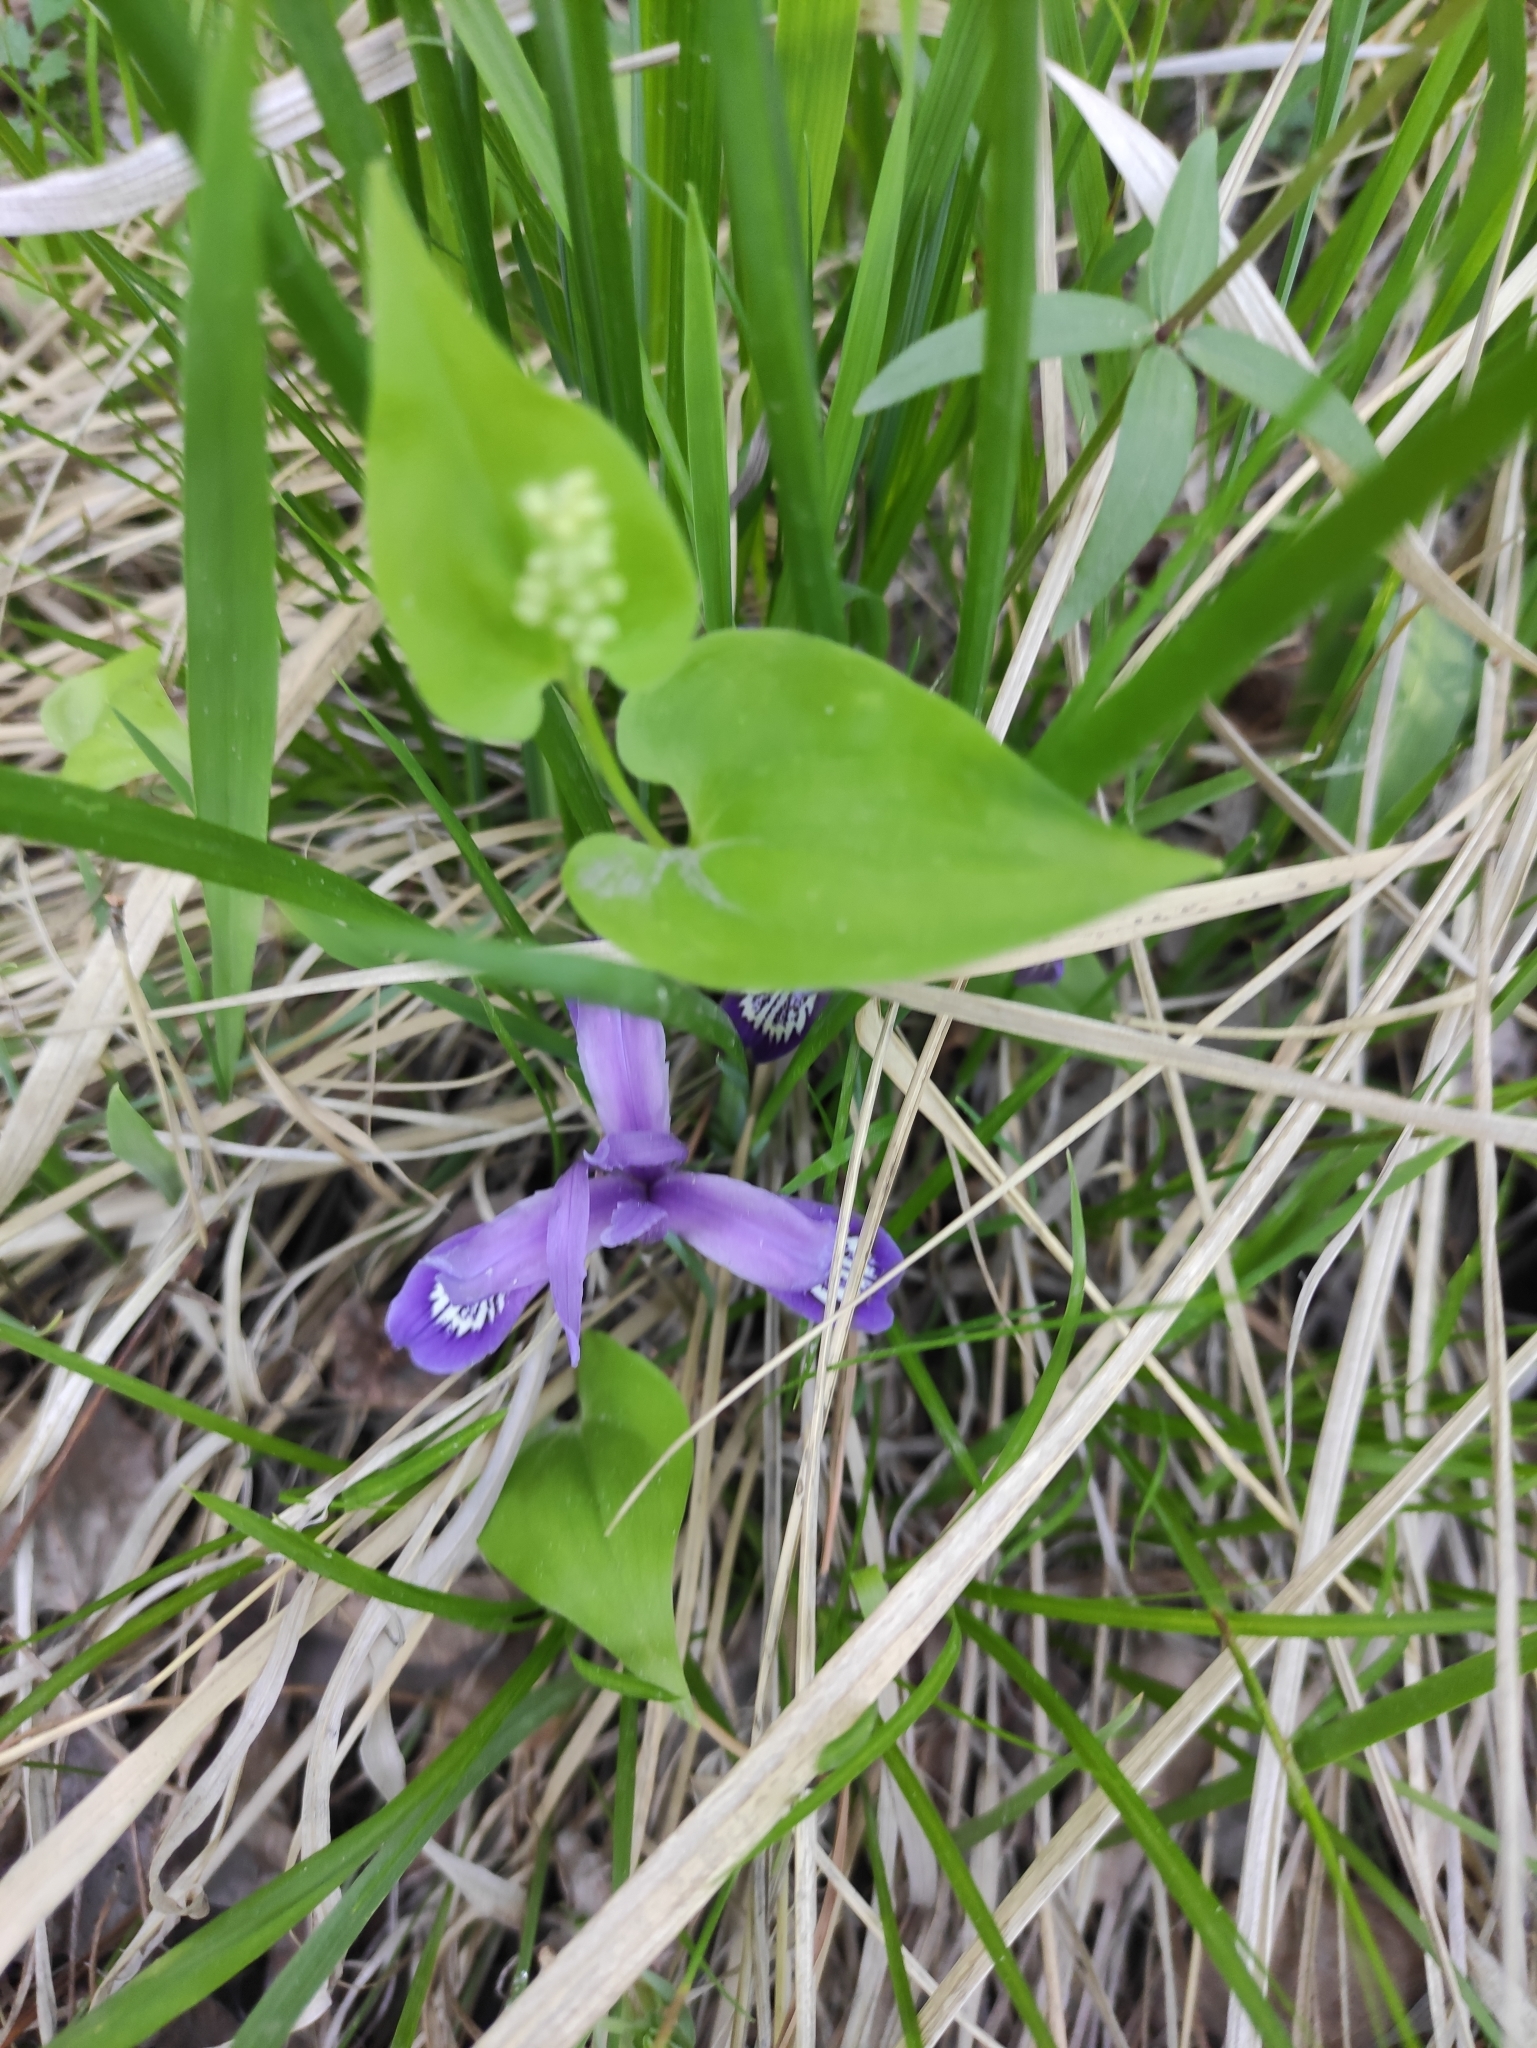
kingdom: Plantae
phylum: Tracheophyta
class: Liliopsida
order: Asparagales
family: Iridaceae
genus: Iris
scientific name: Iris ruthenica
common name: Purple-bract iris
